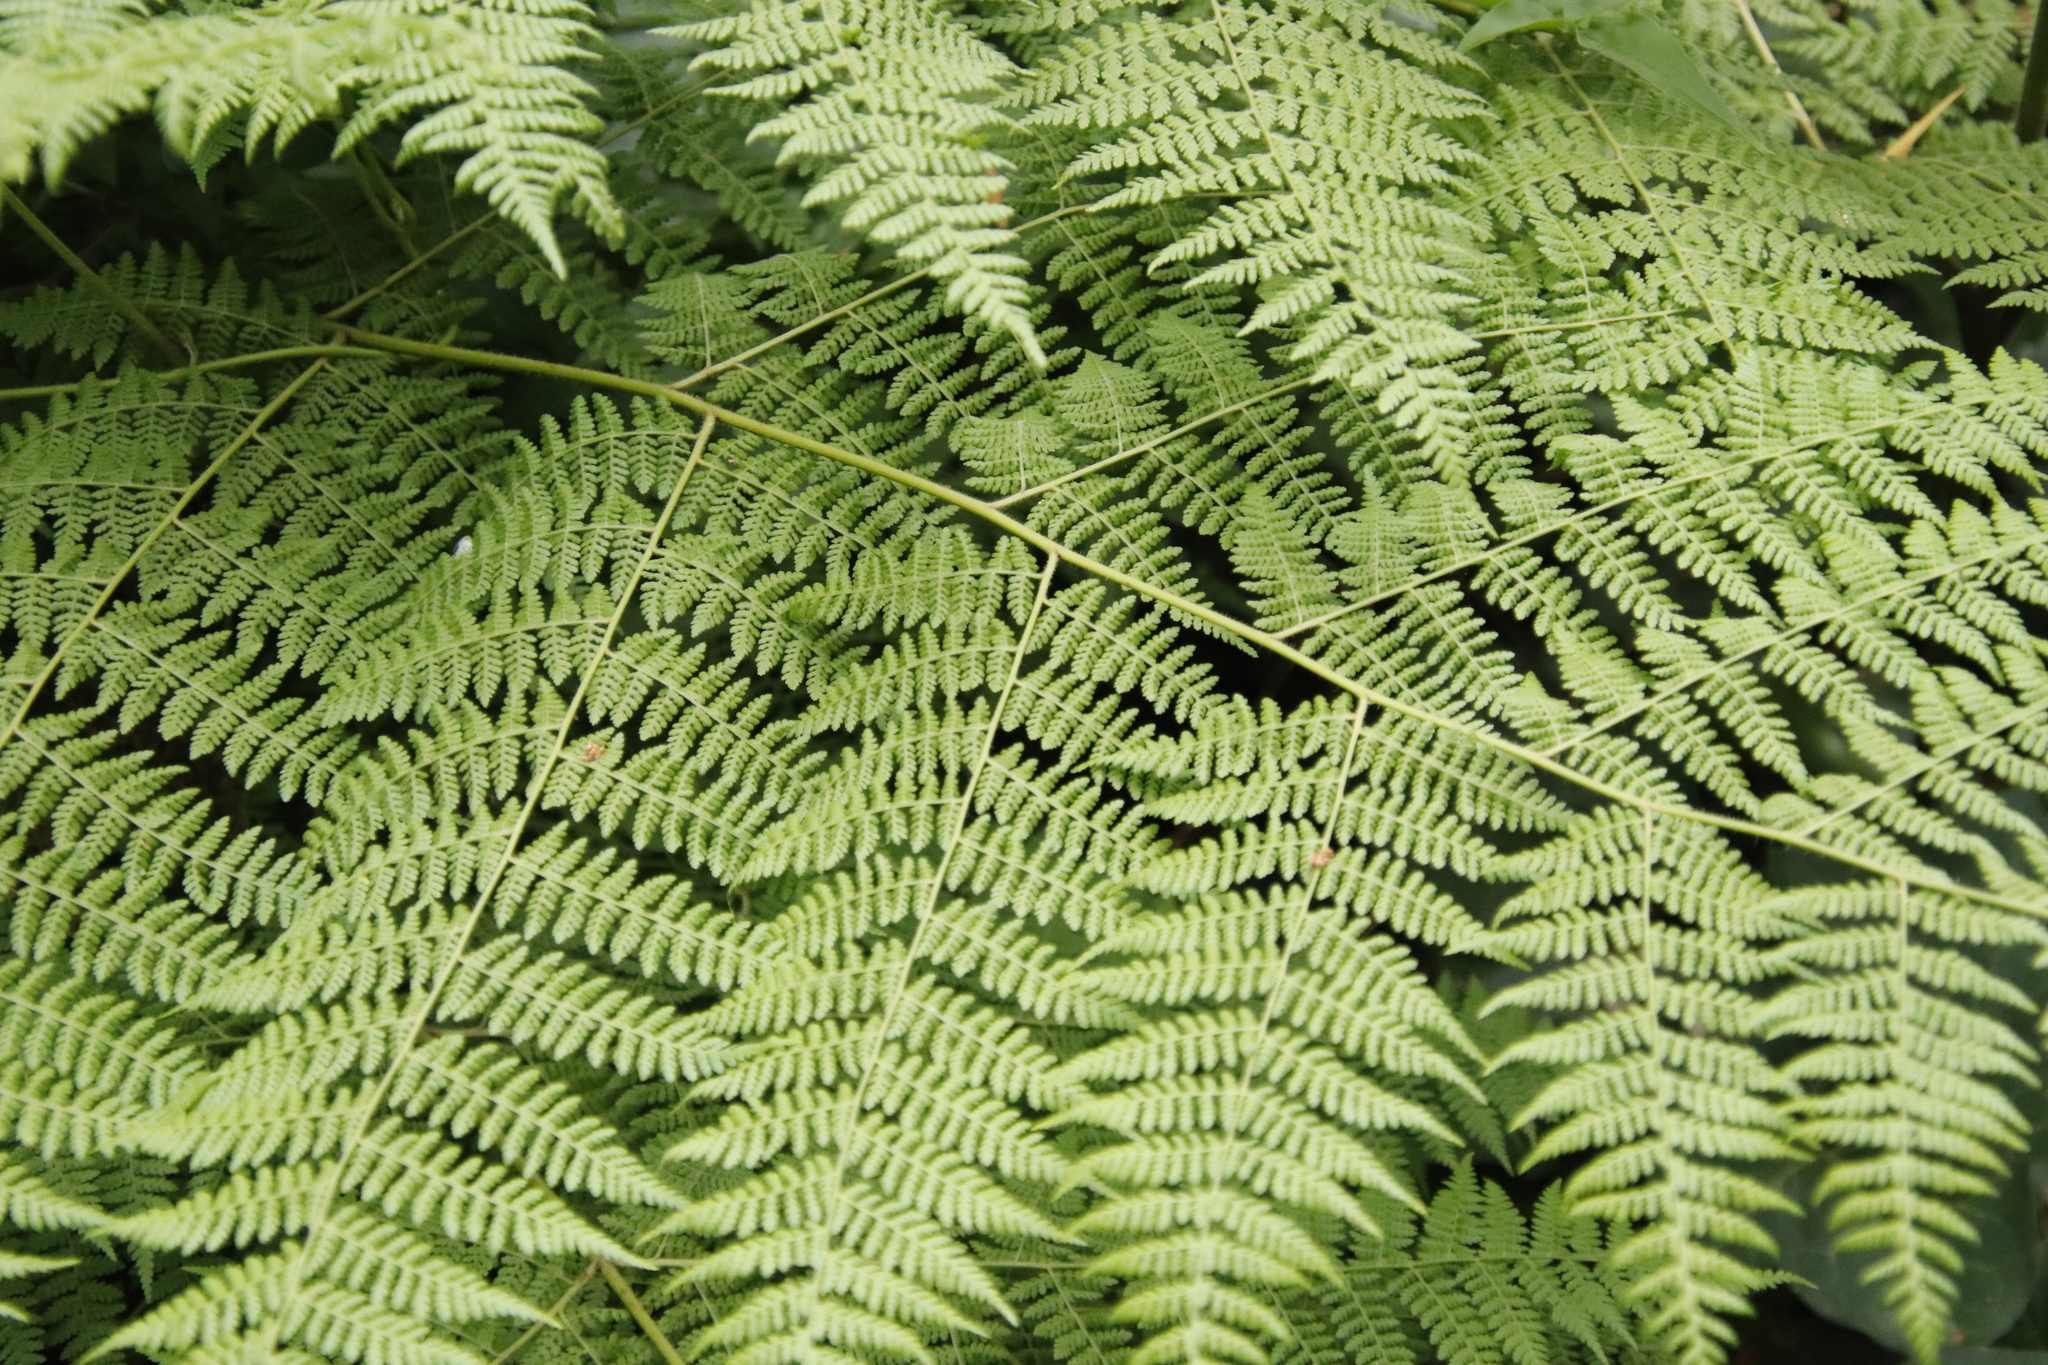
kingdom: Plantae
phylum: Tracheophyta
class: Polypodiopsida
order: Polypodiales
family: Dennstaedtiaceae
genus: Hypolepis
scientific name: Hypolepis sparsisora
